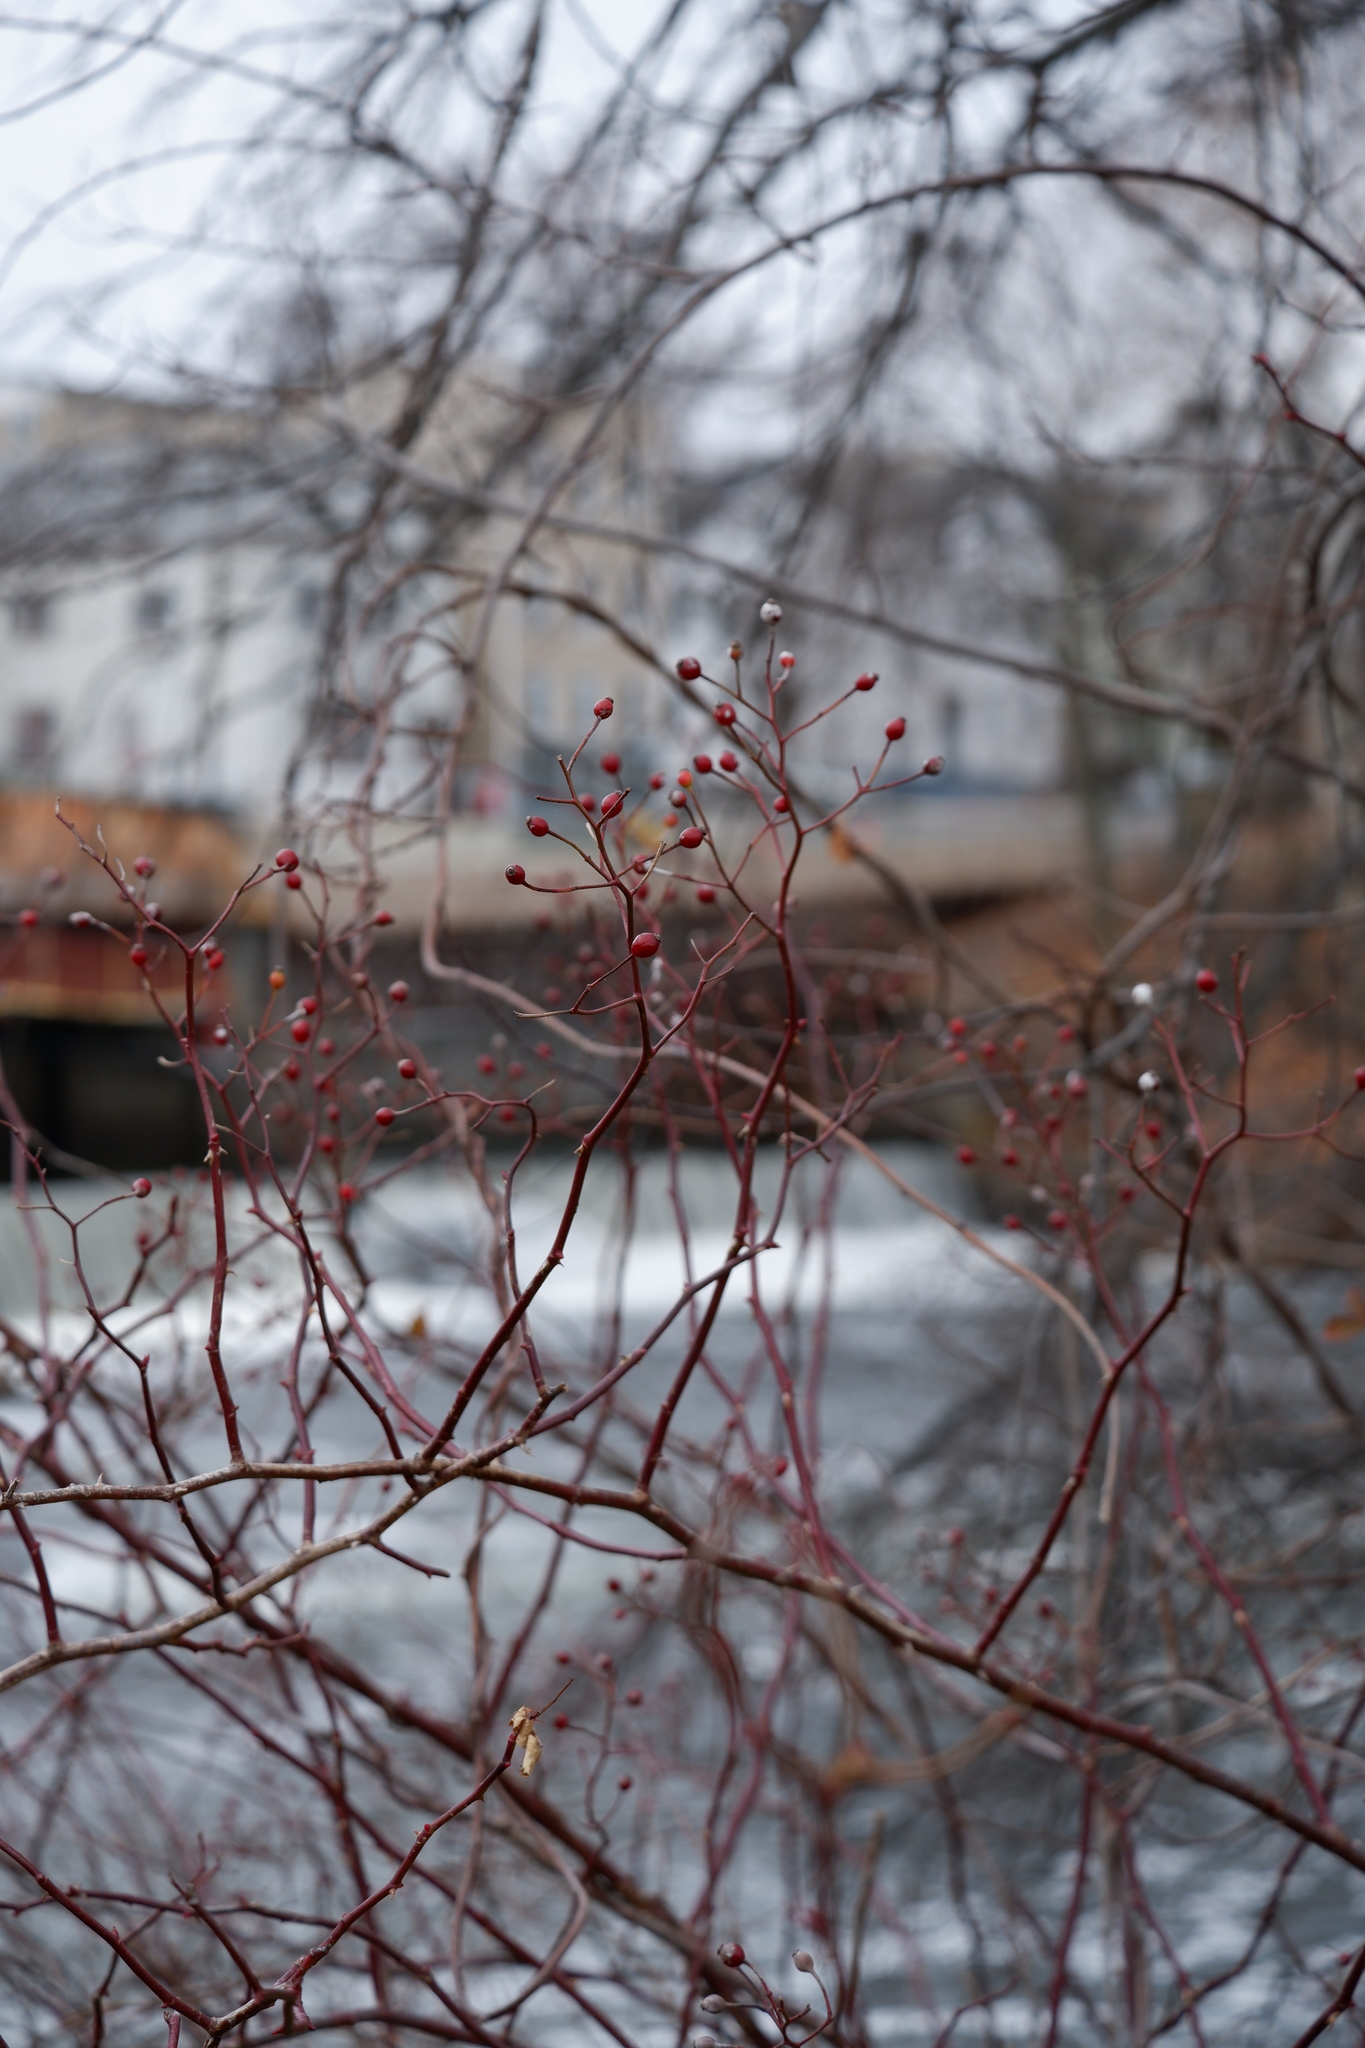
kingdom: Plantae
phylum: Tracheophyta
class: Magnoliopsida
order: Rosales
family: Rosaceae
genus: Rosa
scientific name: Rosa multiflora
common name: Multiflora rose
